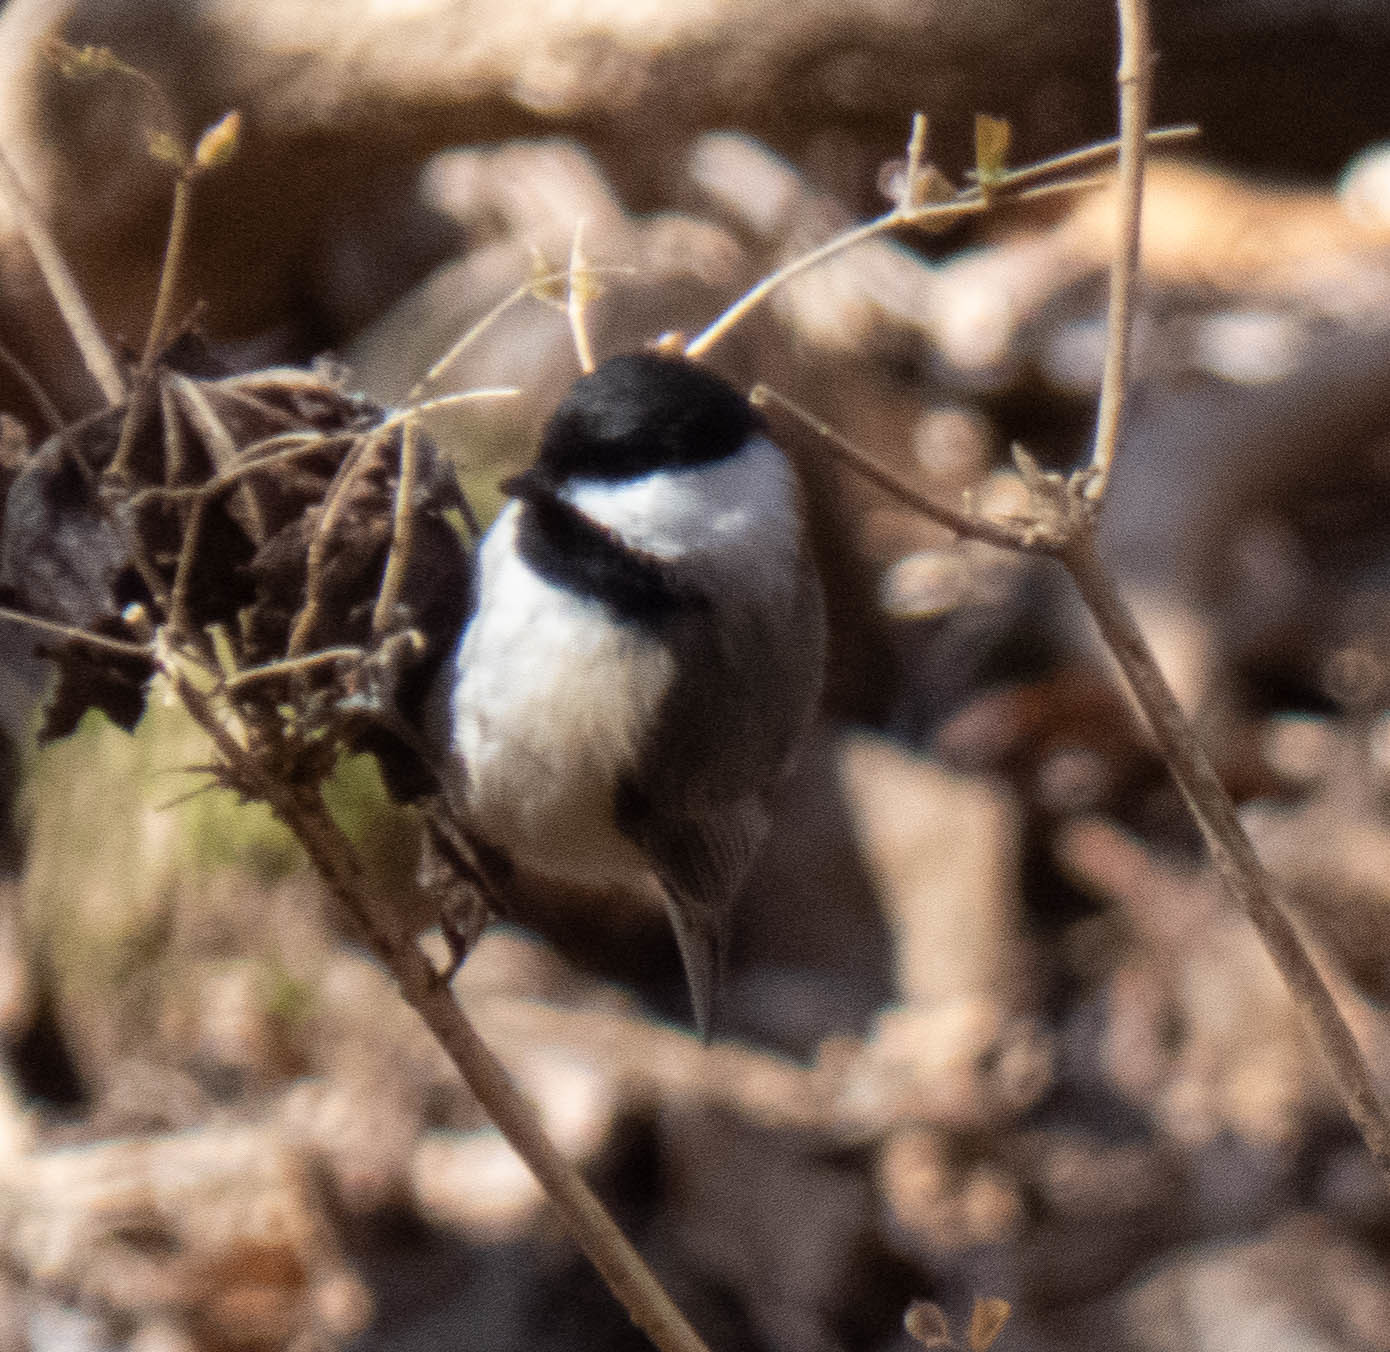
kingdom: Animalia
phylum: Chordata
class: Aves
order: Passeriformes
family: Paridae
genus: Poecile
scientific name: Poecile carolinensis
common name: Carolina chickadee
